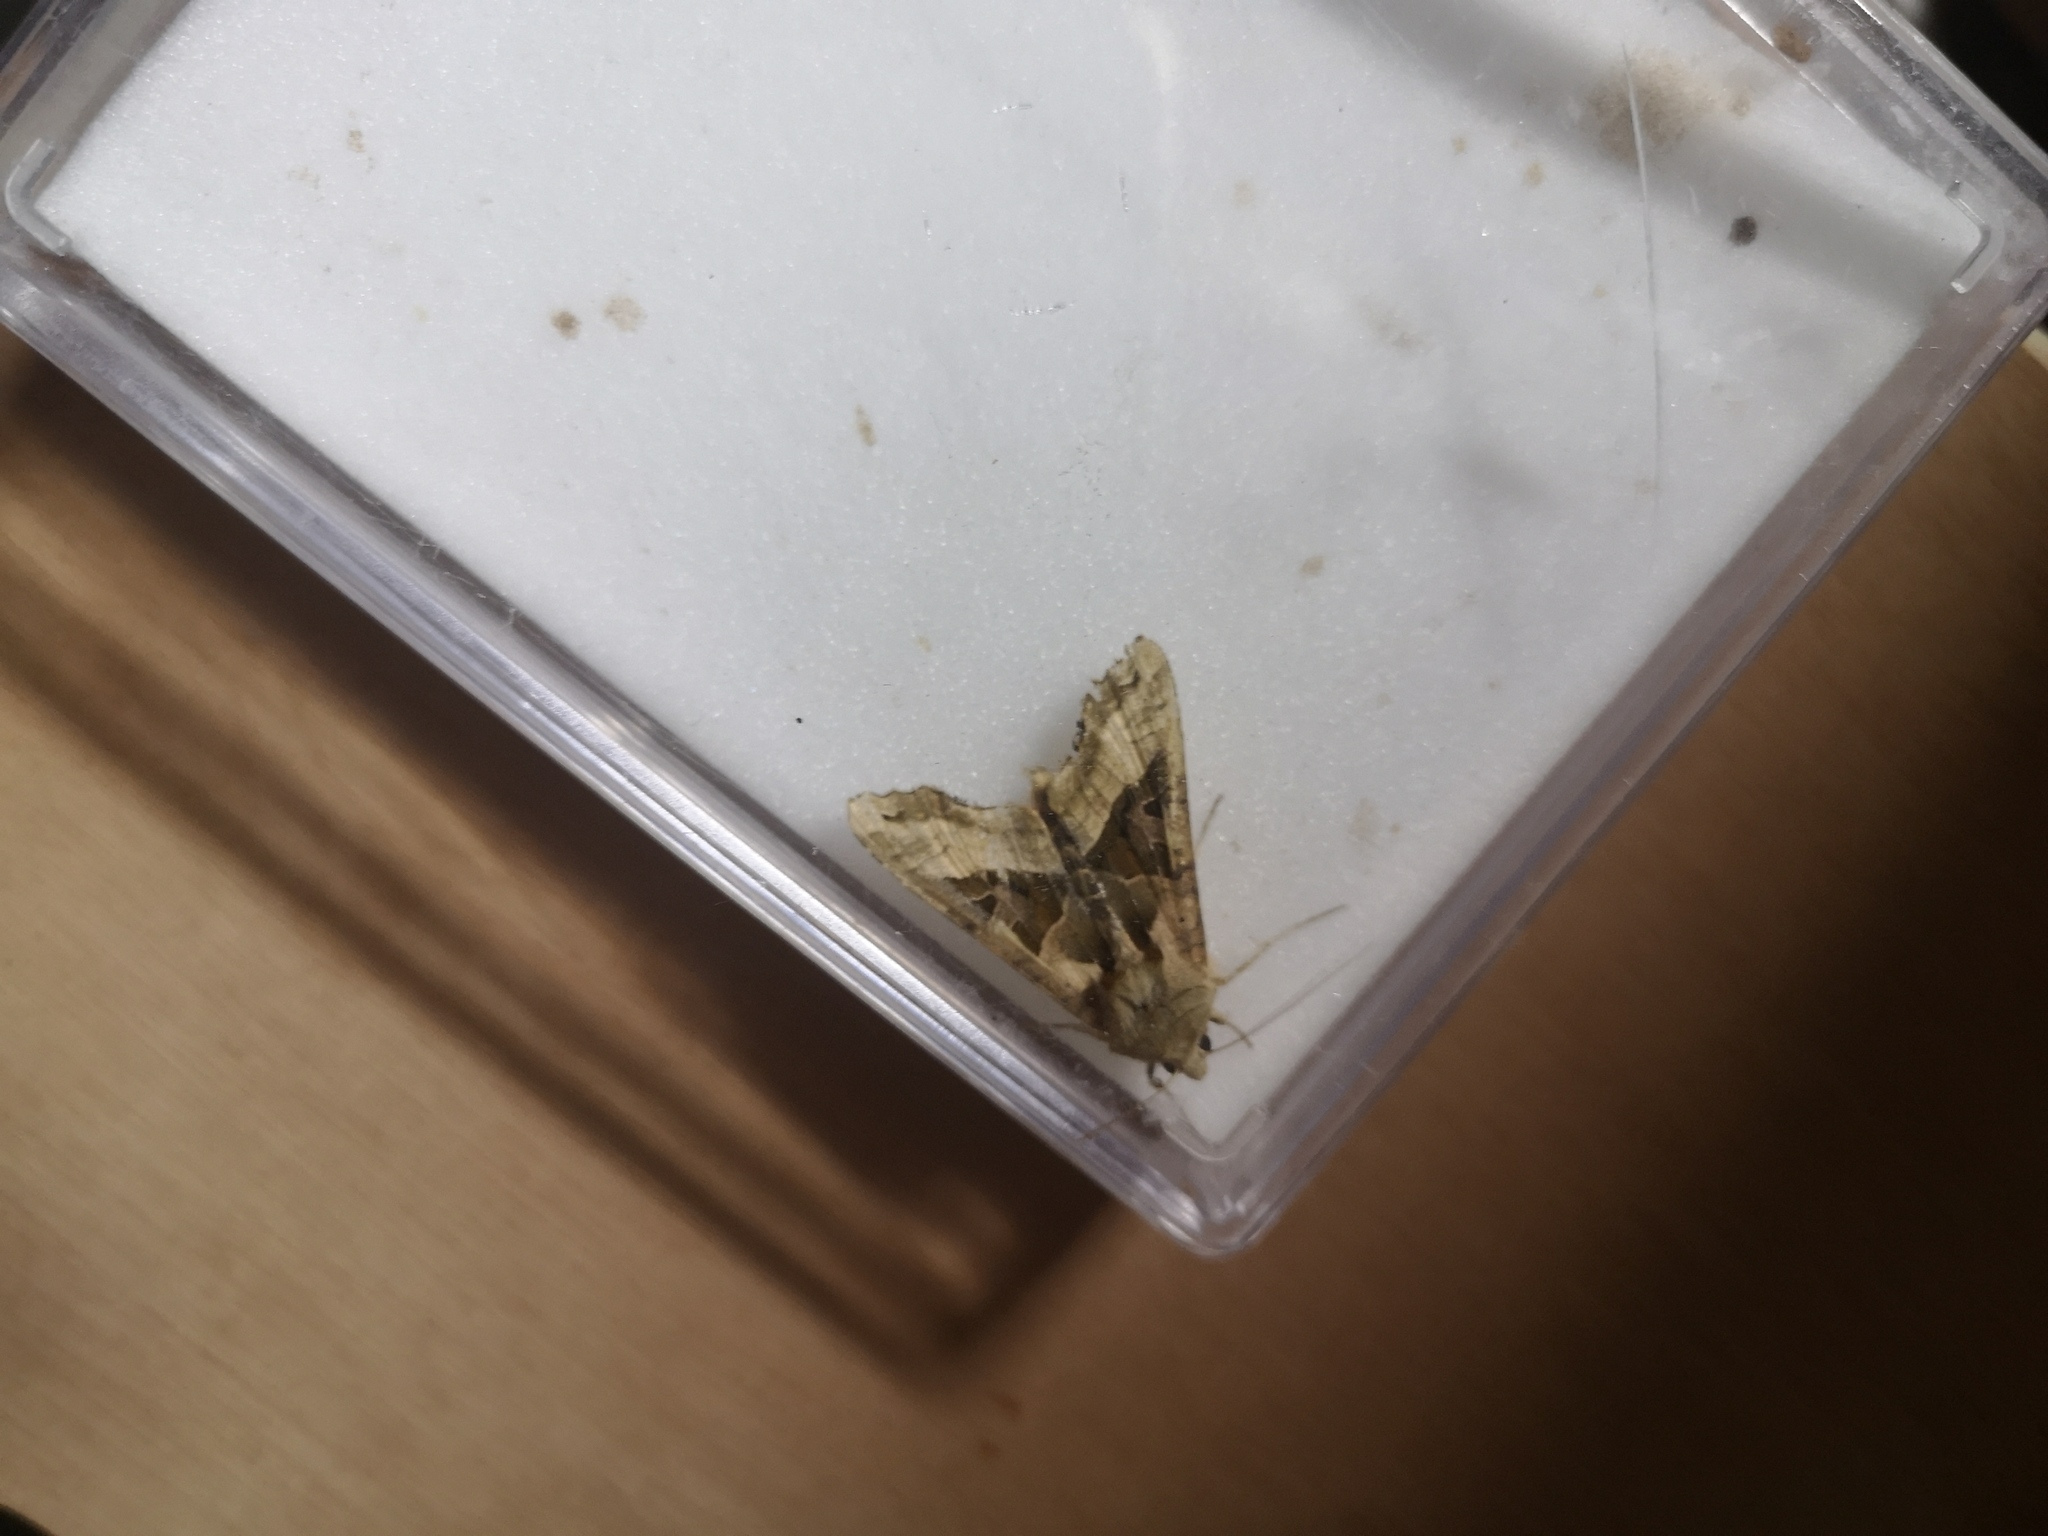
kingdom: Animalia
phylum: Arthropoda
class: Insecta
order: Lepidoptera
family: Noctuidae
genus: Phlogophora
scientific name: Phlogophora meticulosa
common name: Angle shades
